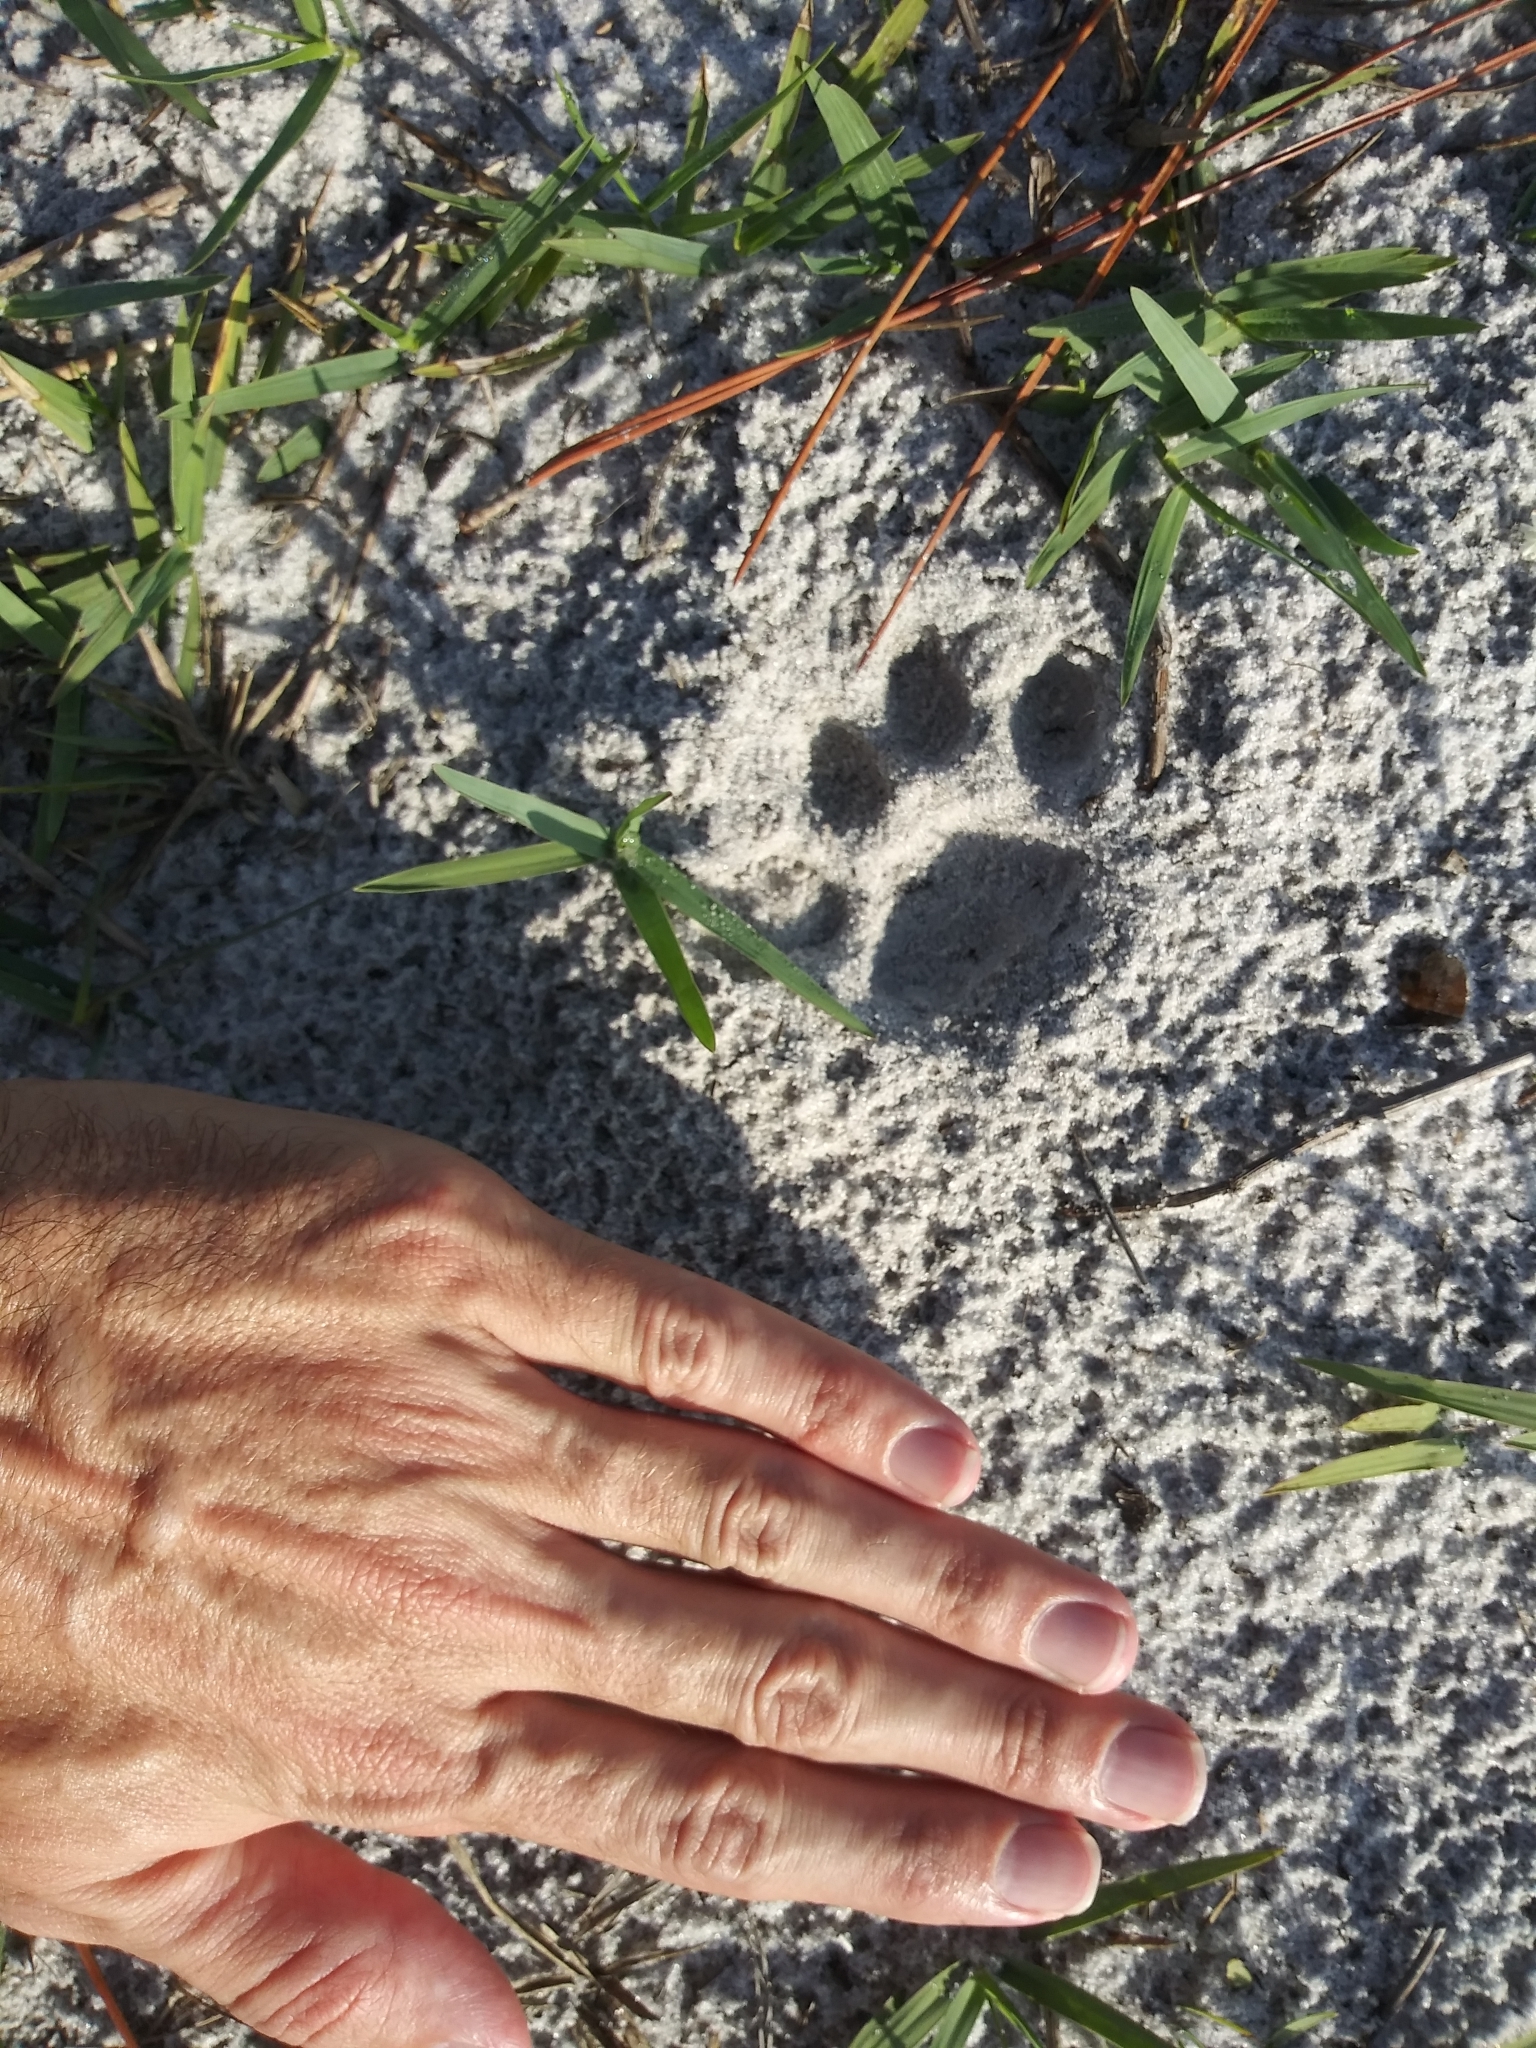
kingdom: Animalia
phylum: Chordata
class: Mammalia
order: Carnivora
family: Felidae
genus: Lynx
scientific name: Lynx rufus
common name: Bobcat
